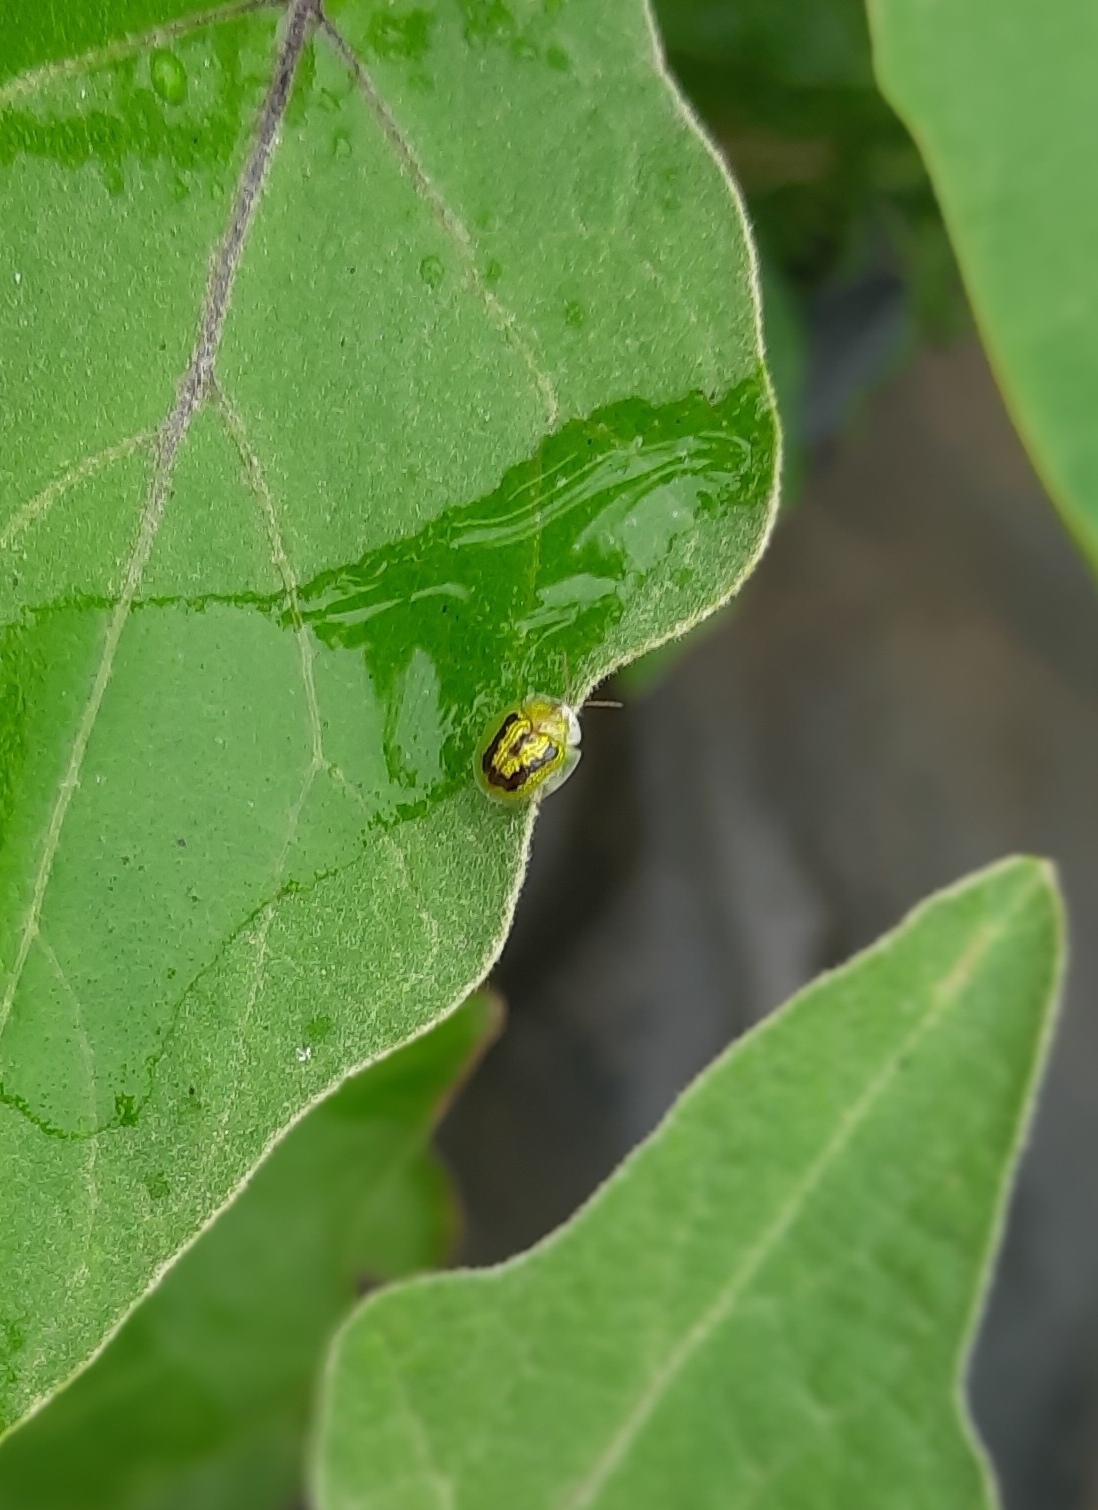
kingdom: Animalia
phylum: Arthropoda
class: Insecta
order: Coleoptera
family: Chrysomelidae
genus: Cassida
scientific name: Cassida circumdata
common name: Tortoise beetle
